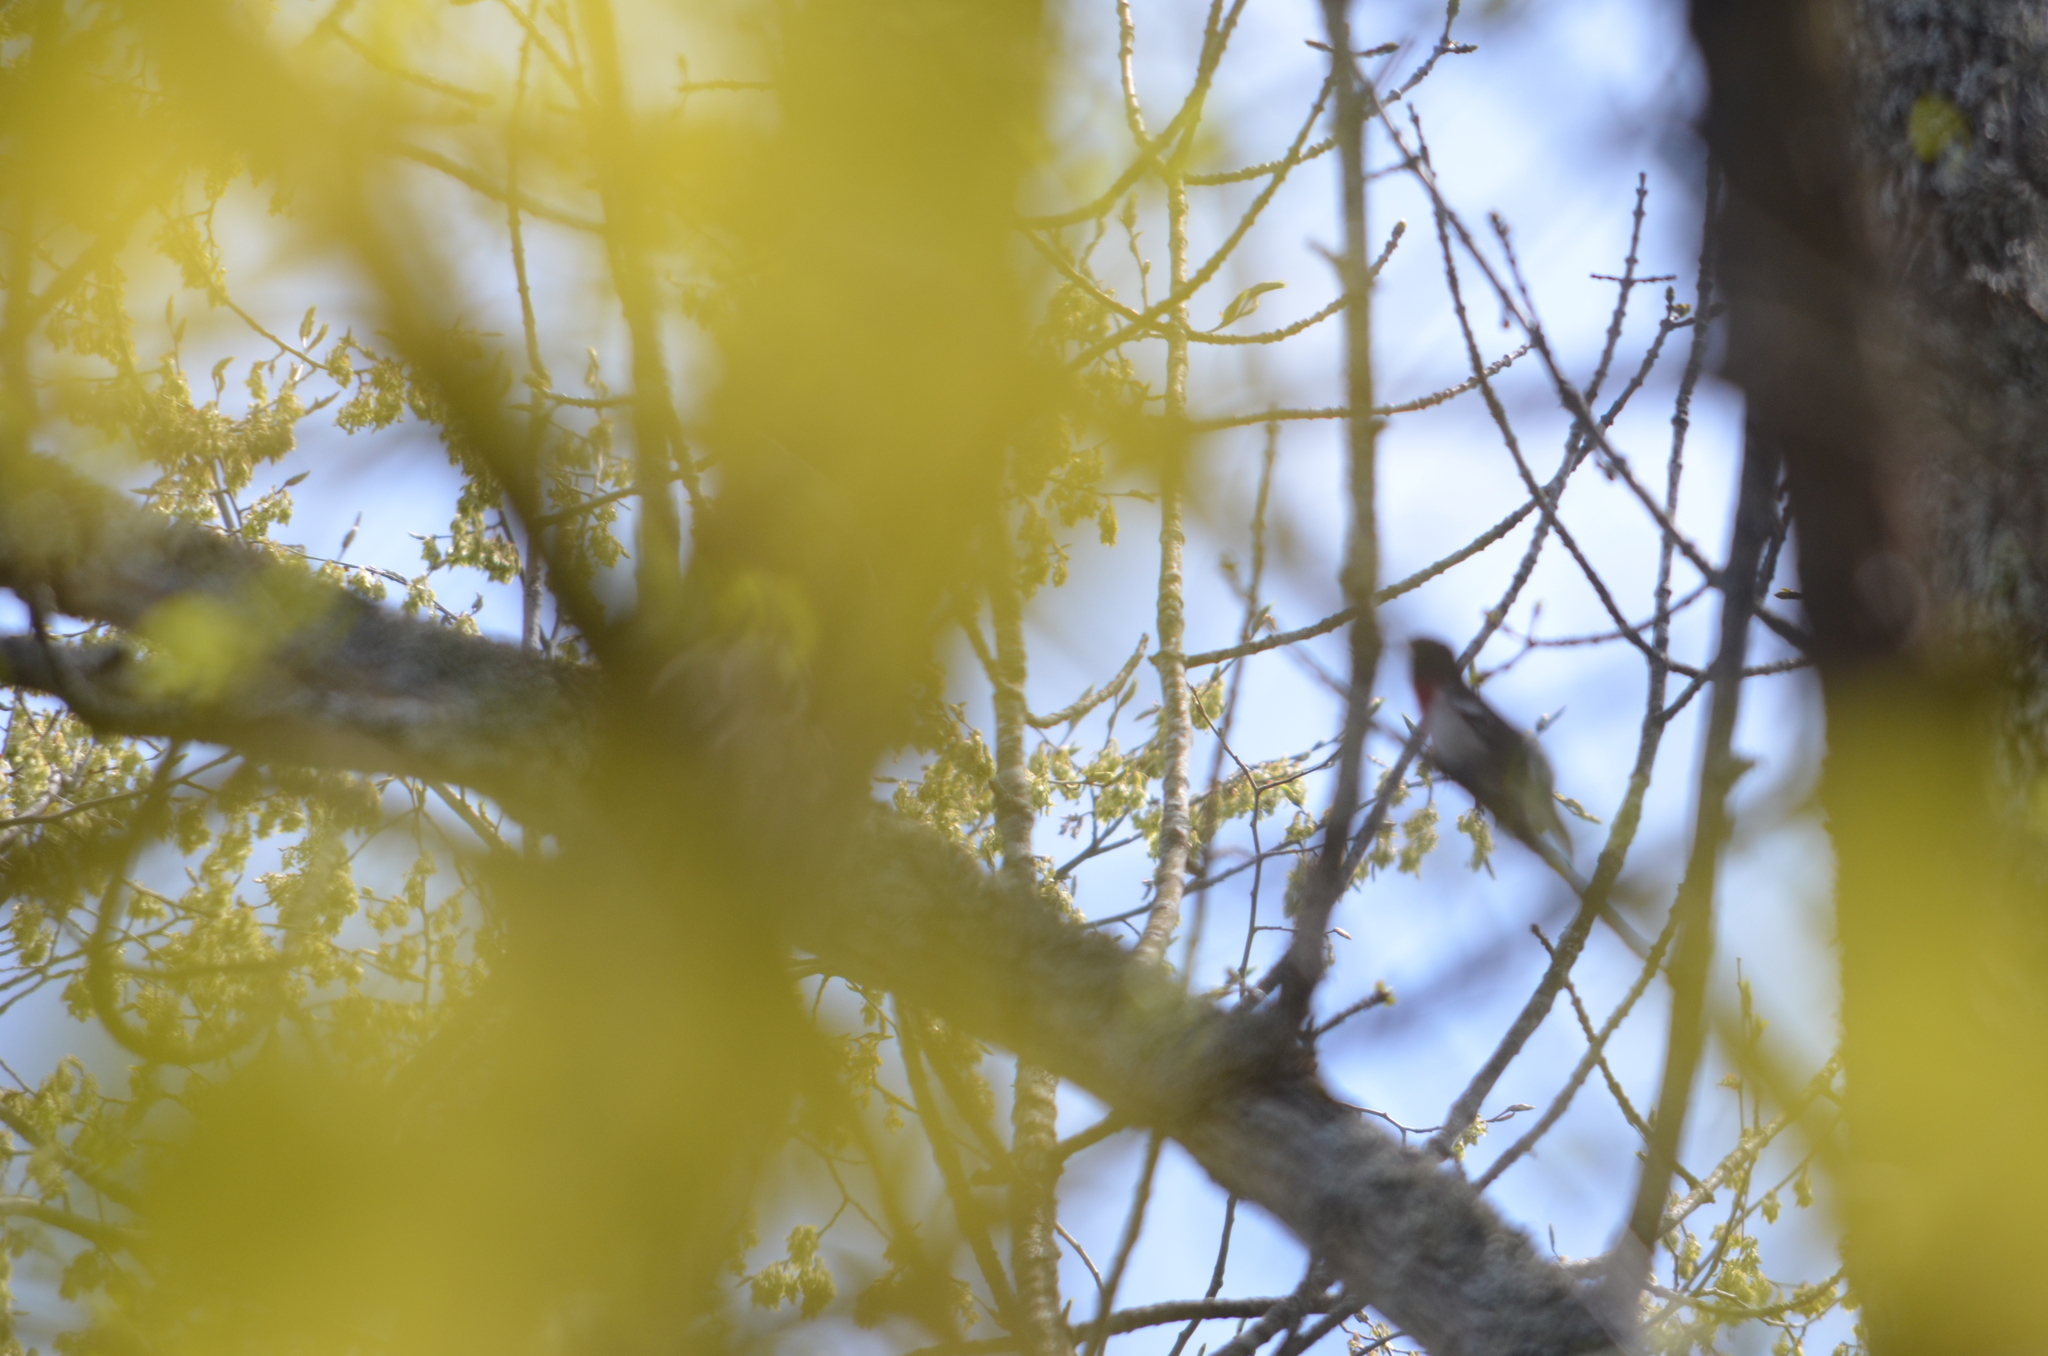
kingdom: Animalia
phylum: Chordata
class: Aves
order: Passeriformes
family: Cardinalidae
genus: Pheucticus
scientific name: Pheucticus ludovicianus
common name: Rose-breasted grosbeak
